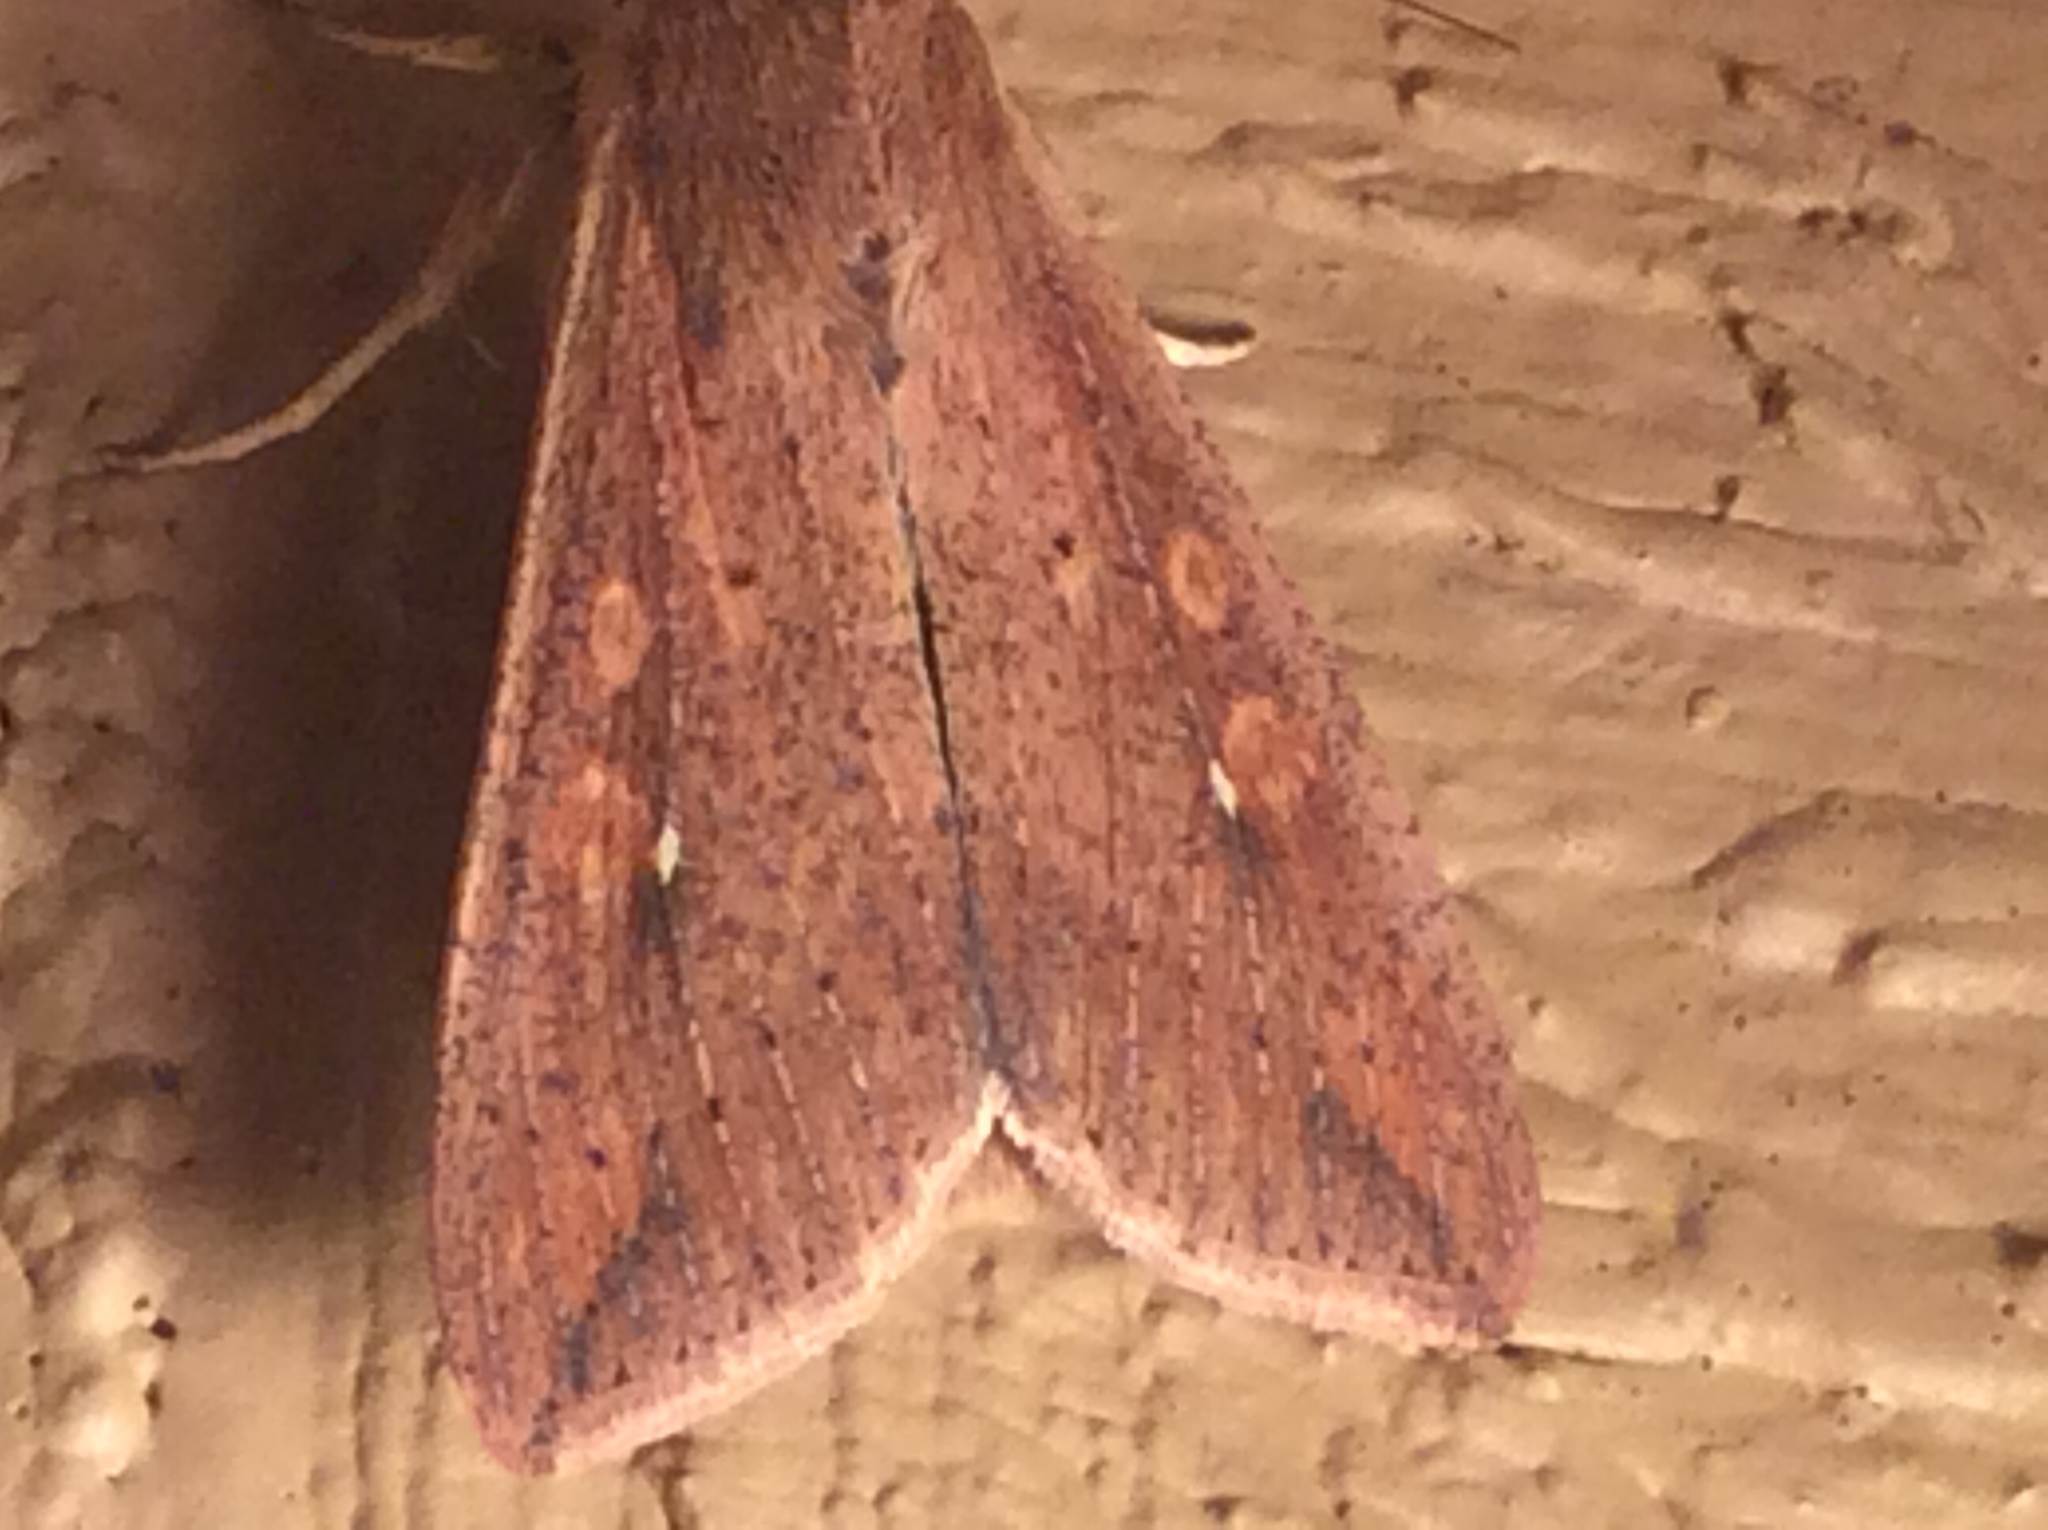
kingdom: Animalia
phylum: Arthropoda
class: Insecta
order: Lepidoptera
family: Noctuidae
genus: Mythimna
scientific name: Mythimna unipuncta
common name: White-speck
